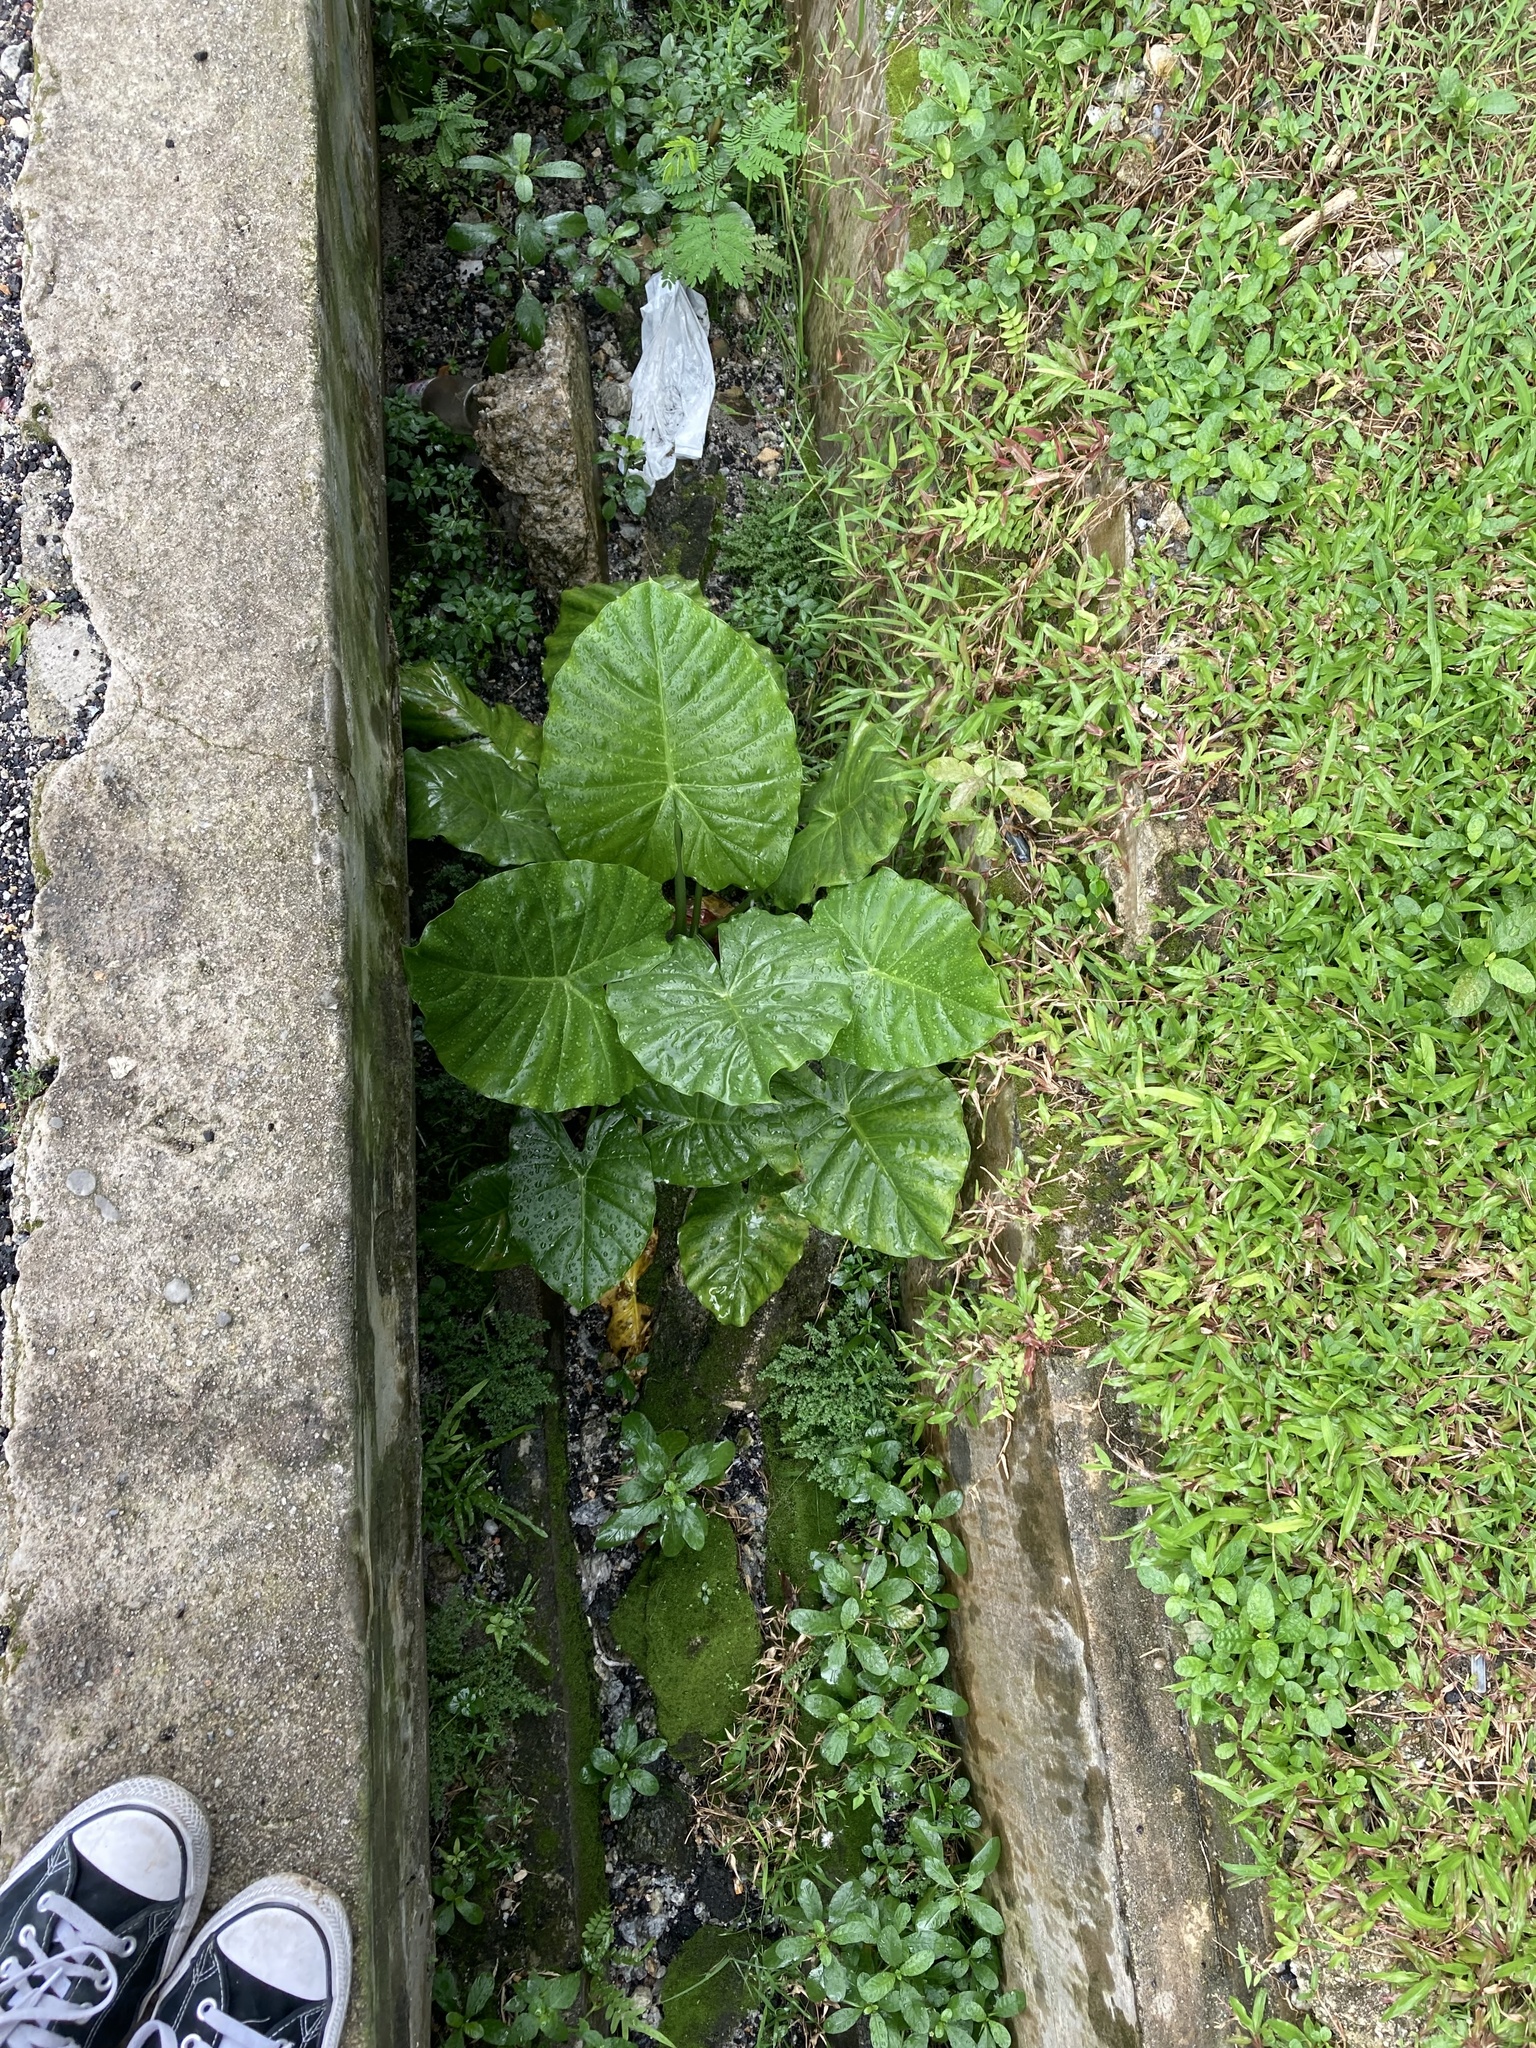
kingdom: Plantae
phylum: Tracheophyta
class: Liliopsida
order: Alismatales
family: Araceae
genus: Alocasia
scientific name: Alocasia odora
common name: Asian taro
